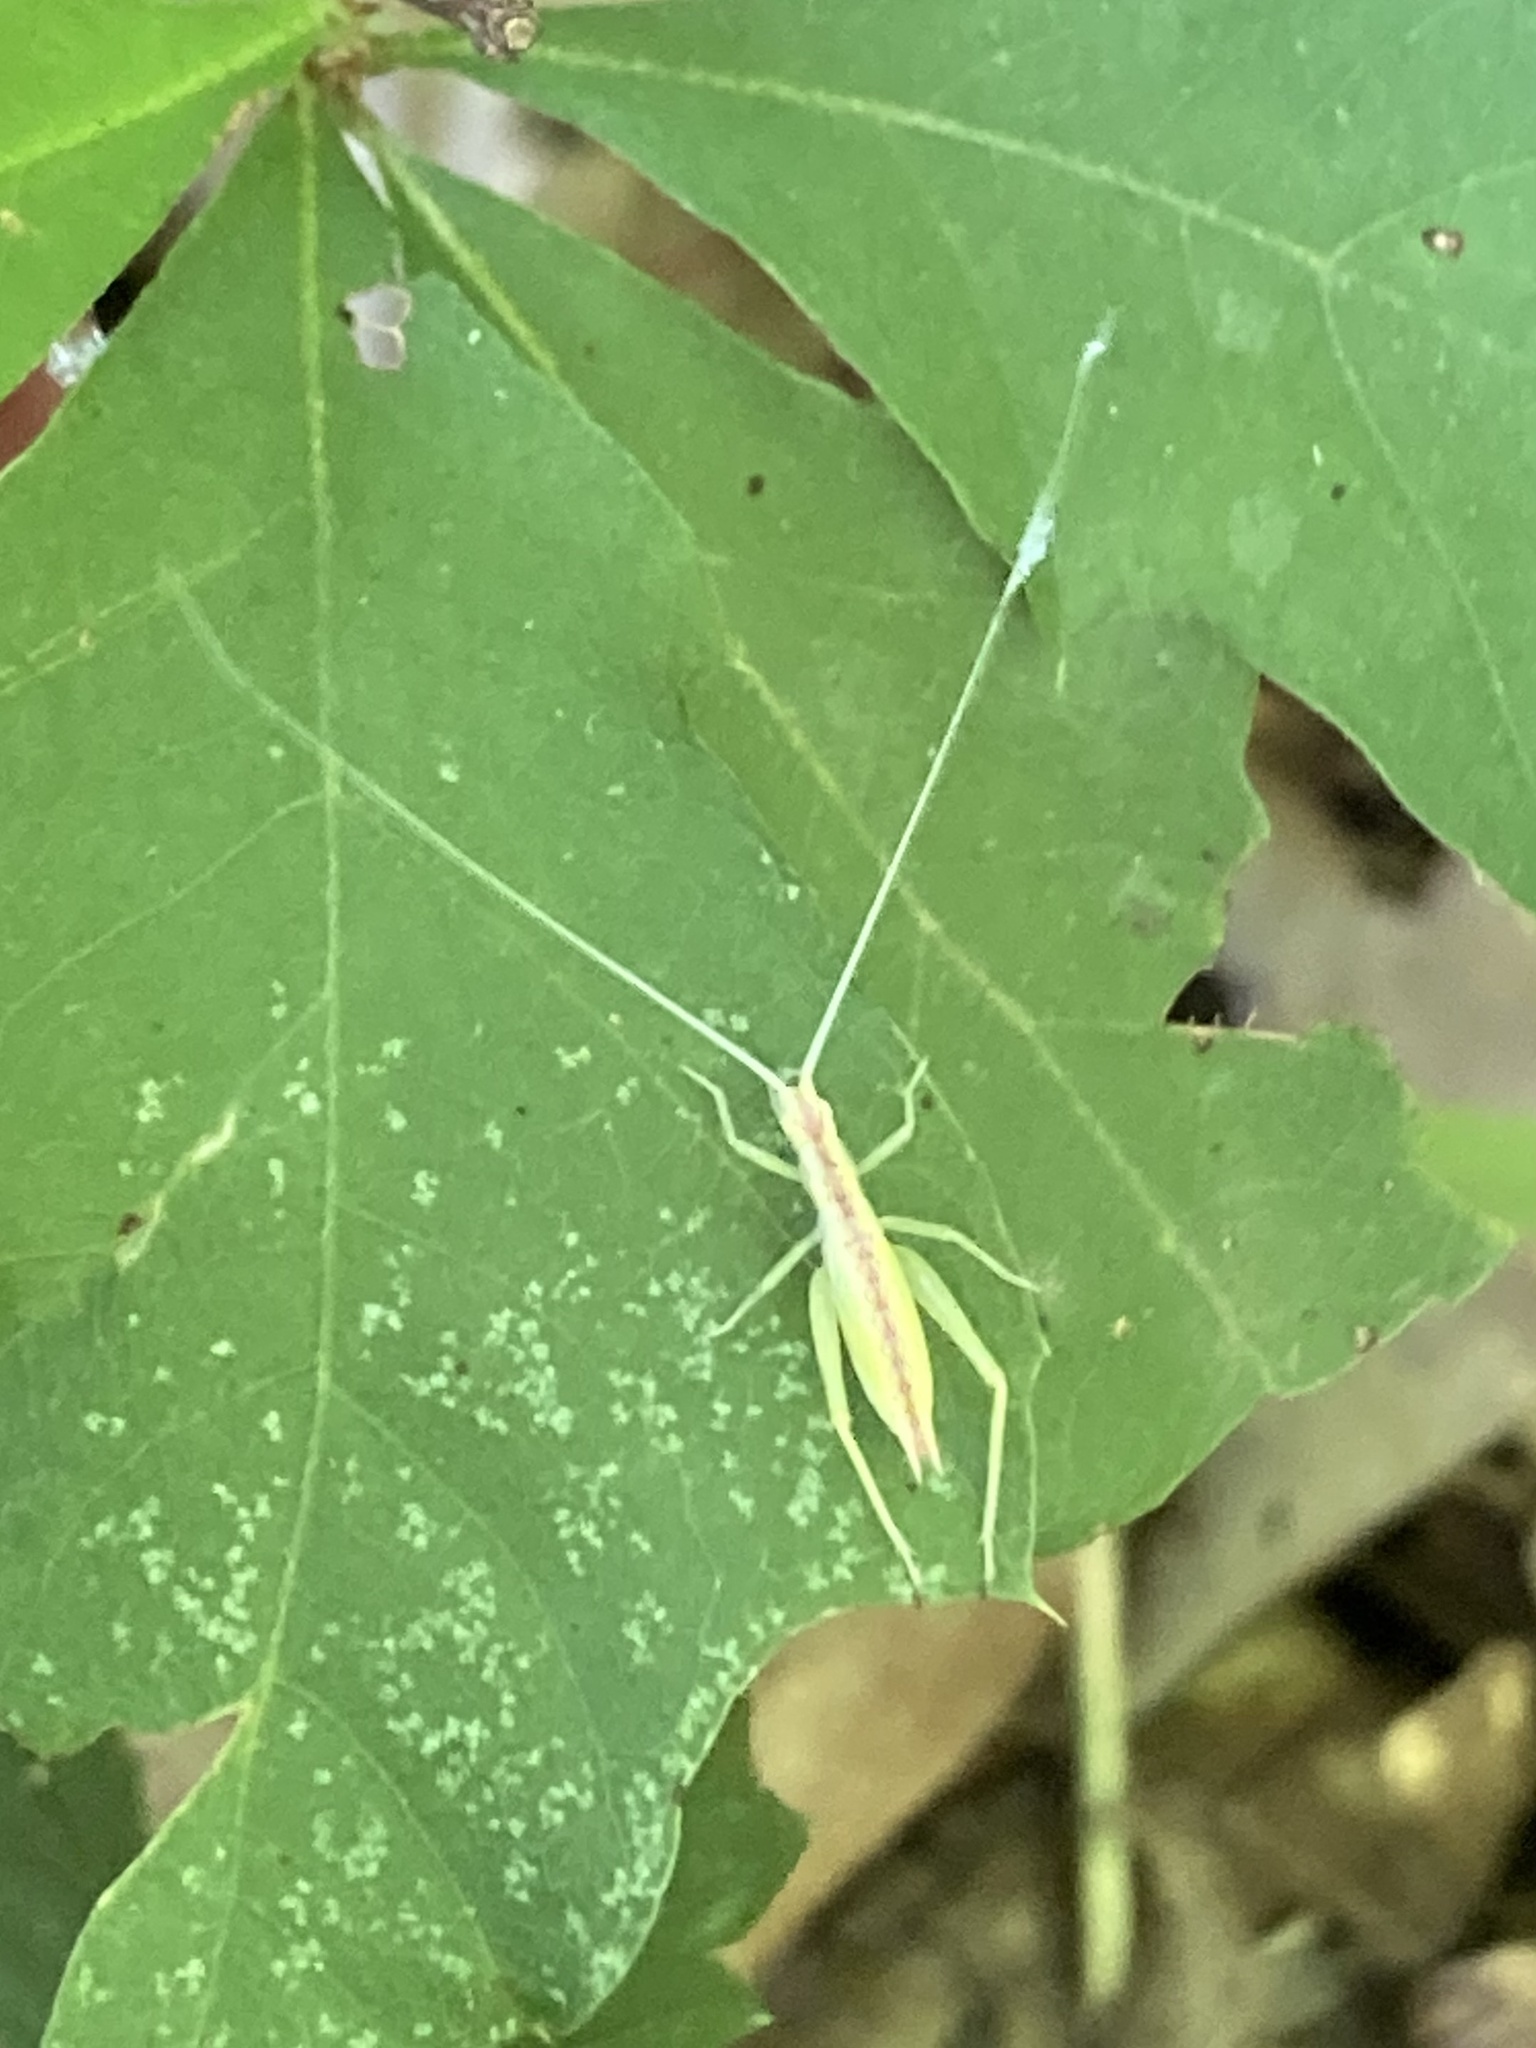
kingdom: Animalia
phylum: Arthropoda
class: Insecta
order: Orthoptera
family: Gryllidae
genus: Oecanthus
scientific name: Oecanthus latipennis
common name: Broad-winged tree cricket
